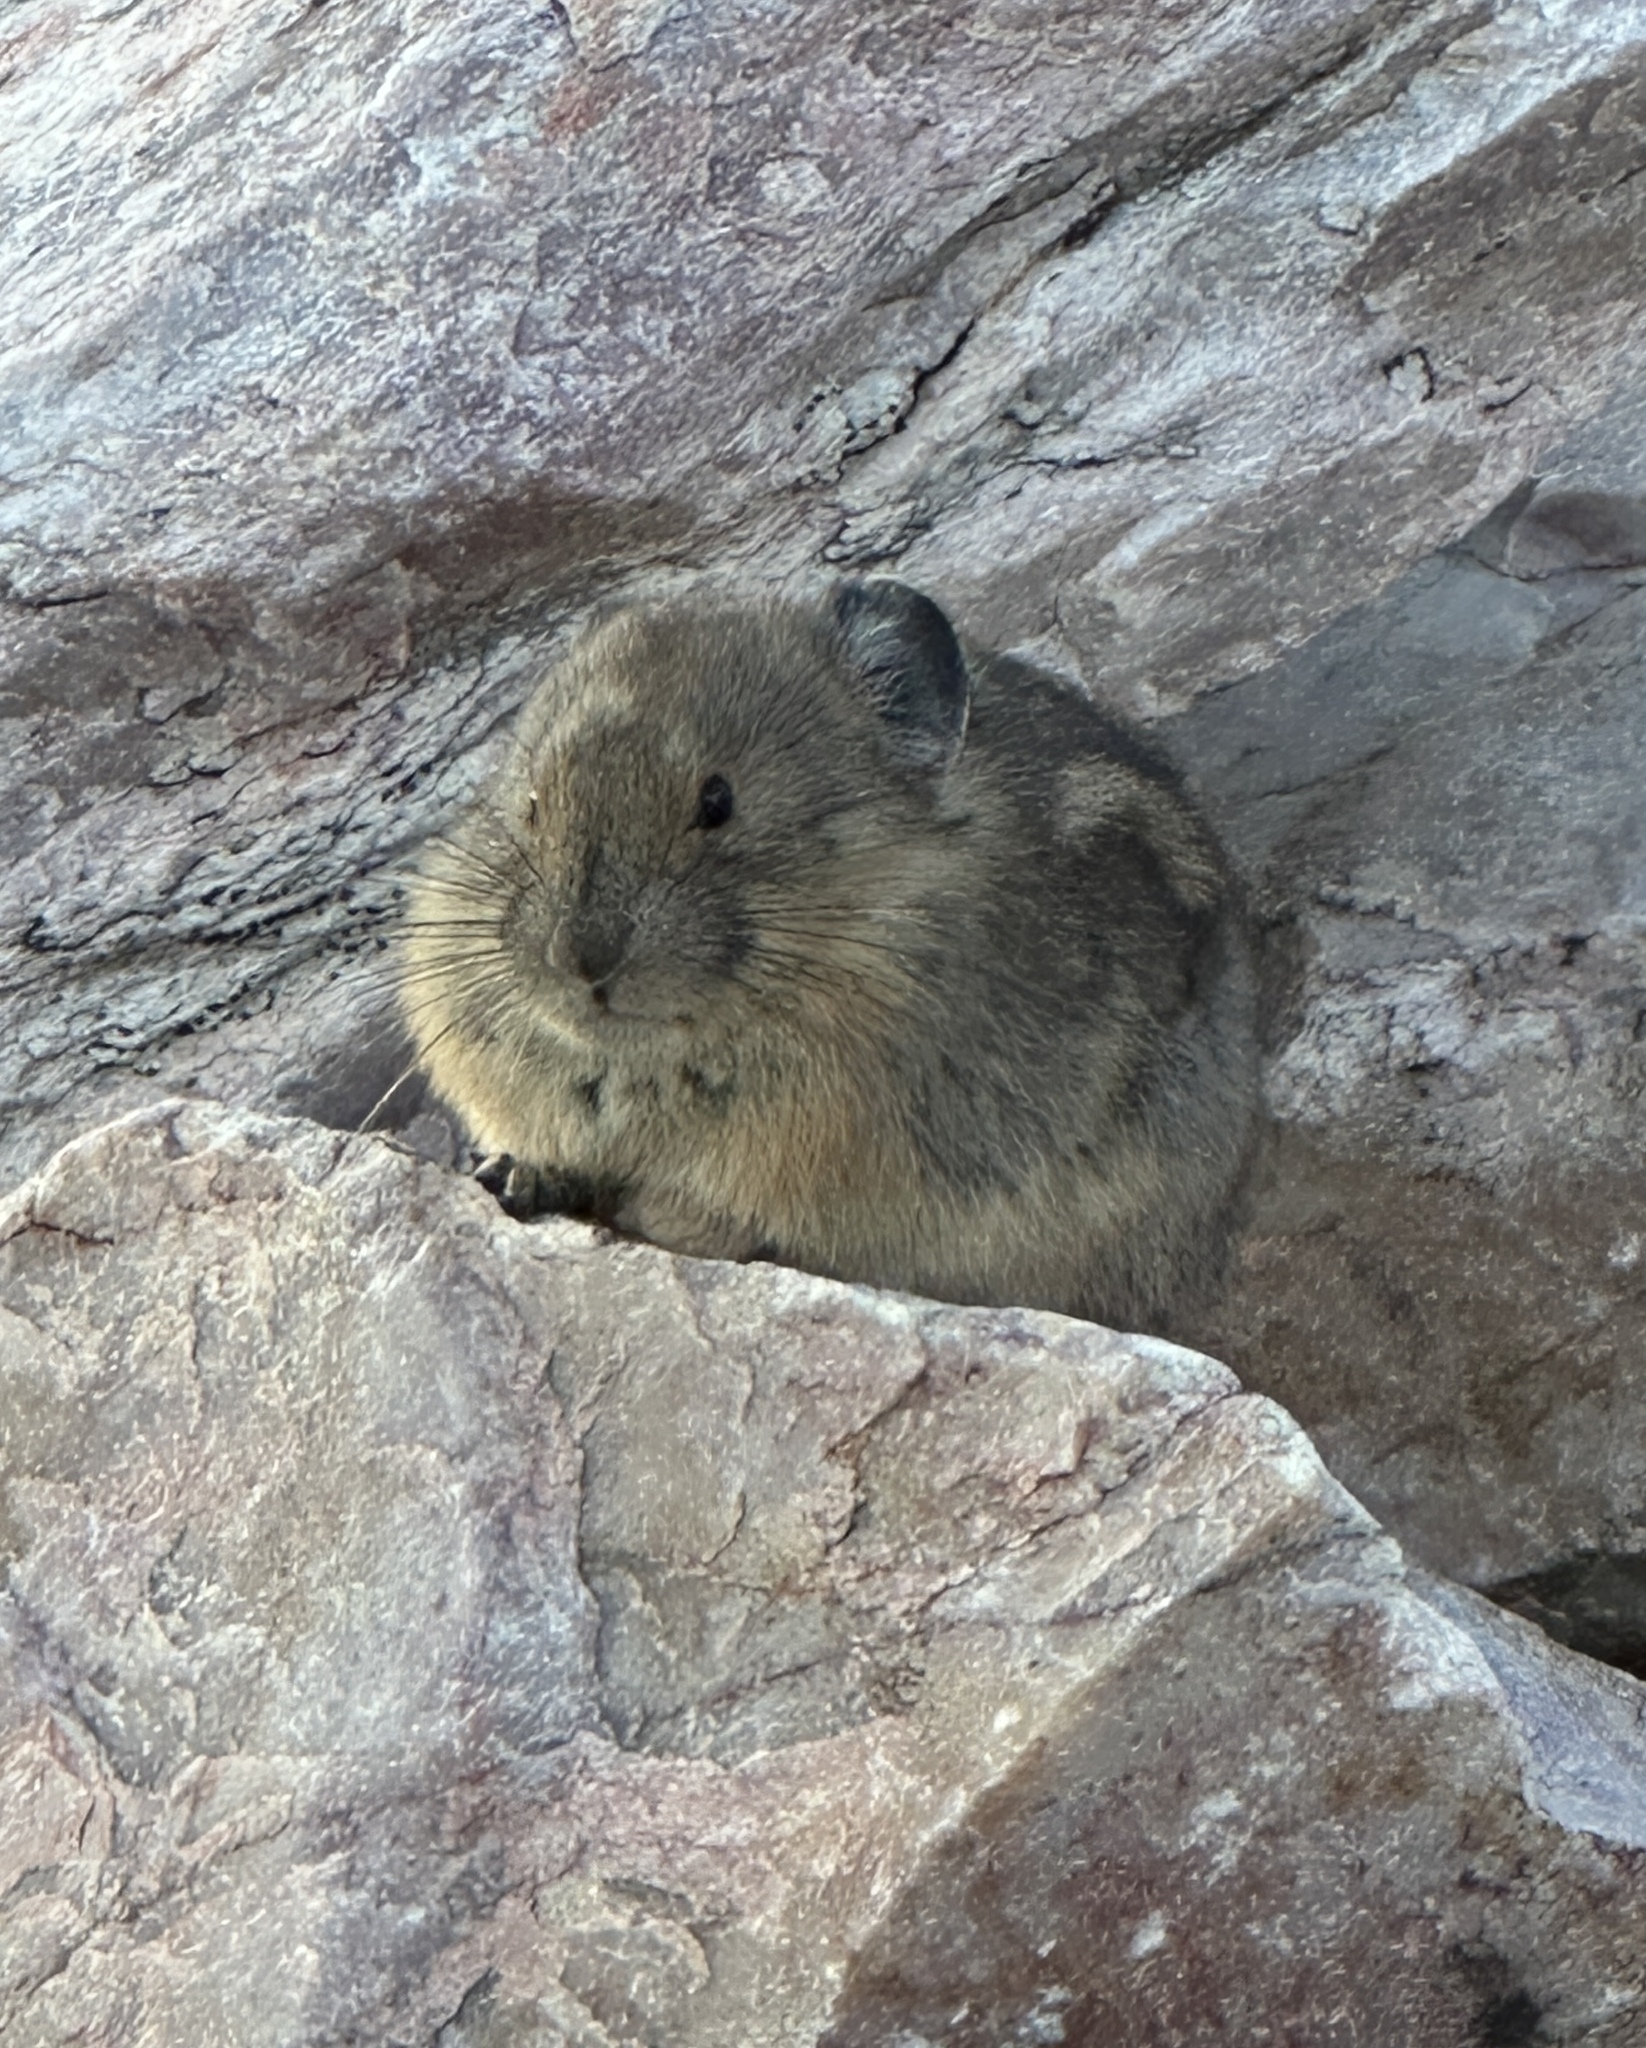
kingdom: Animalia
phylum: Chordata
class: Mammalia
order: Lagomorpha
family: Ochotonidae
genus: Ochotona
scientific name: Ochotona princeps
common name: American pika
